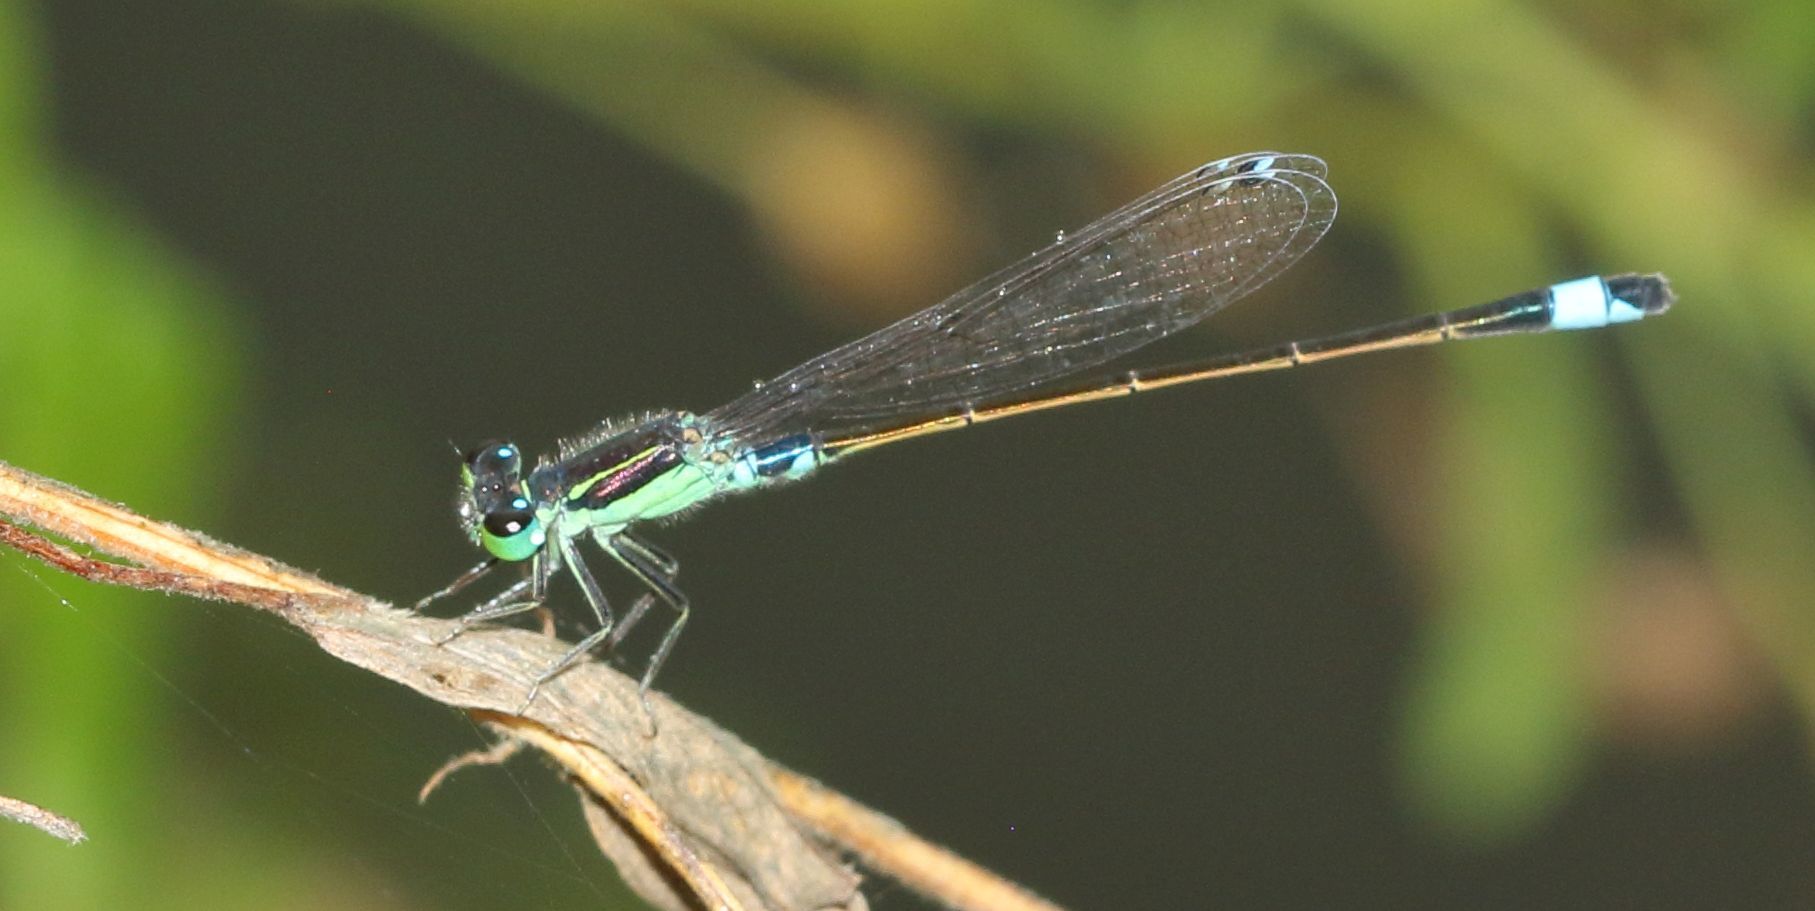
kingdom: Animalia
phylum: Arthropoda
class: Insecta
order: Odonata
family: Coenagrionidae
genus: Ischnura
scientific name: Ischnura senegalensis
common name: Tropical bluetail
